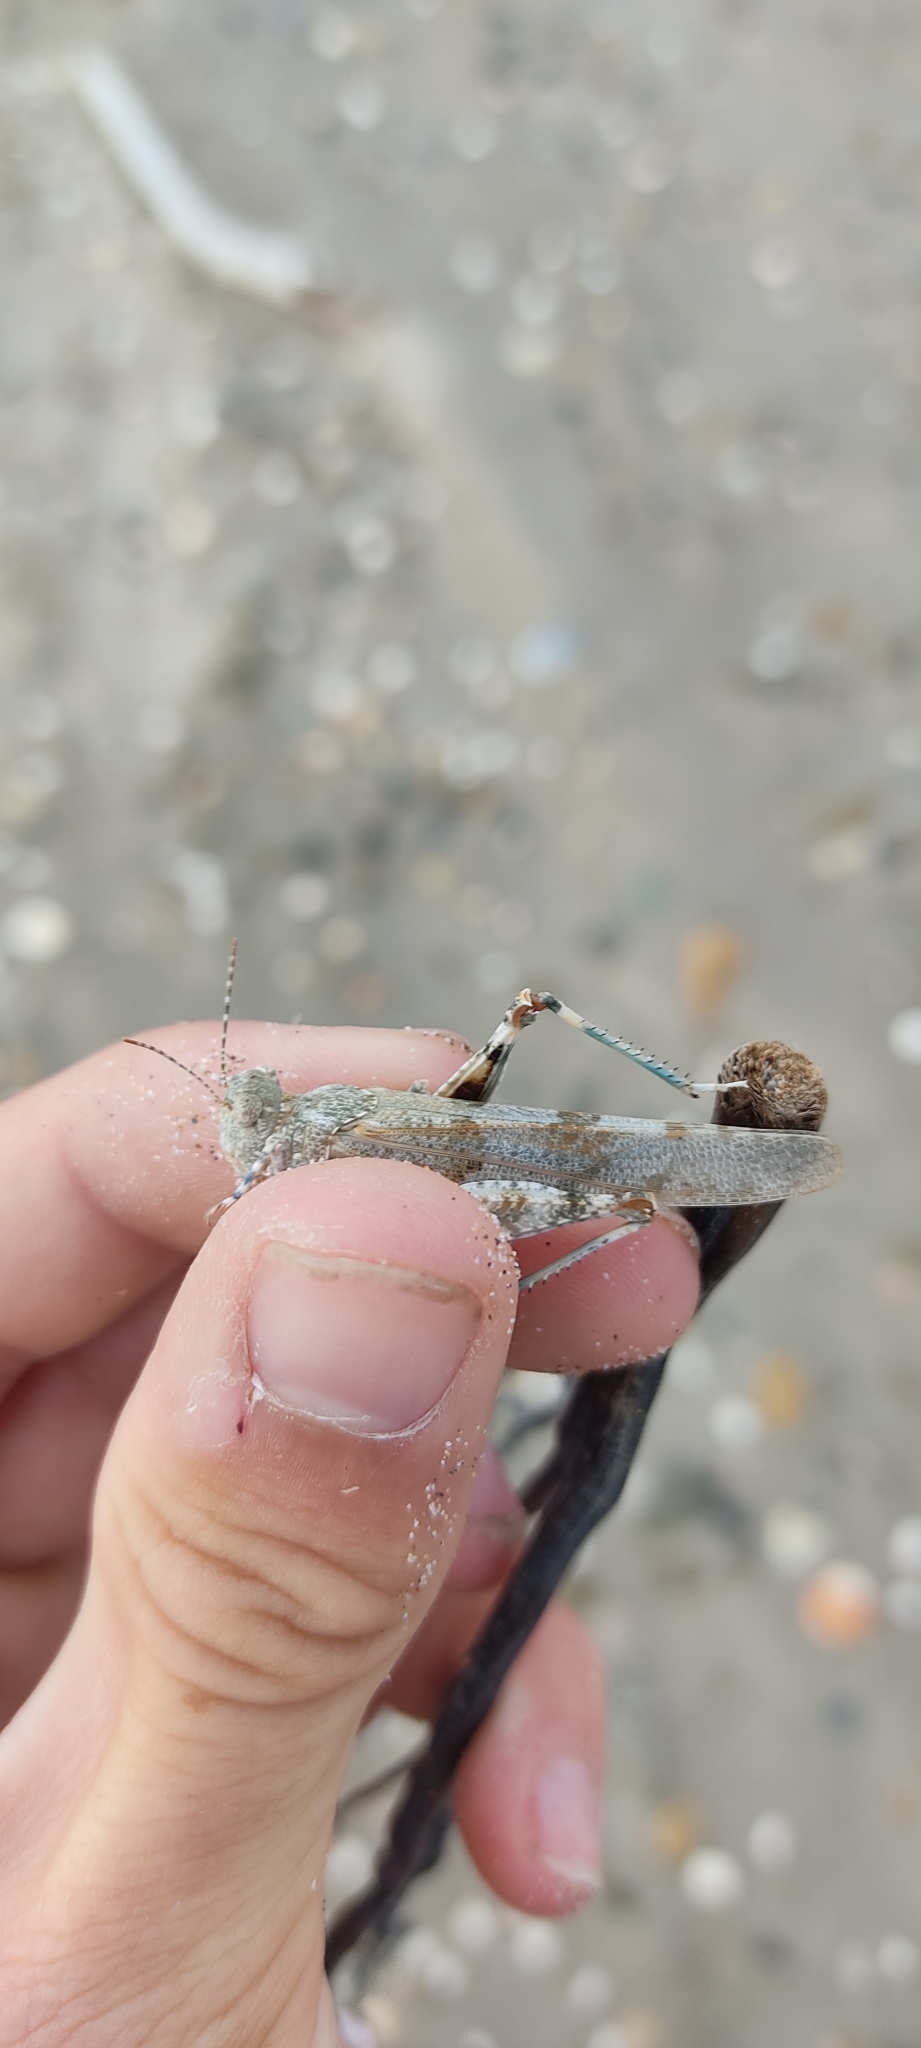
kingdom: Animalia
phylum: Arthropoda
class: Insecta
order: Orthoptera
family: Acrididae
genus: Sphingonotus
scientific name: Sphingonotus caerulans
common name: Blue-winged locust
